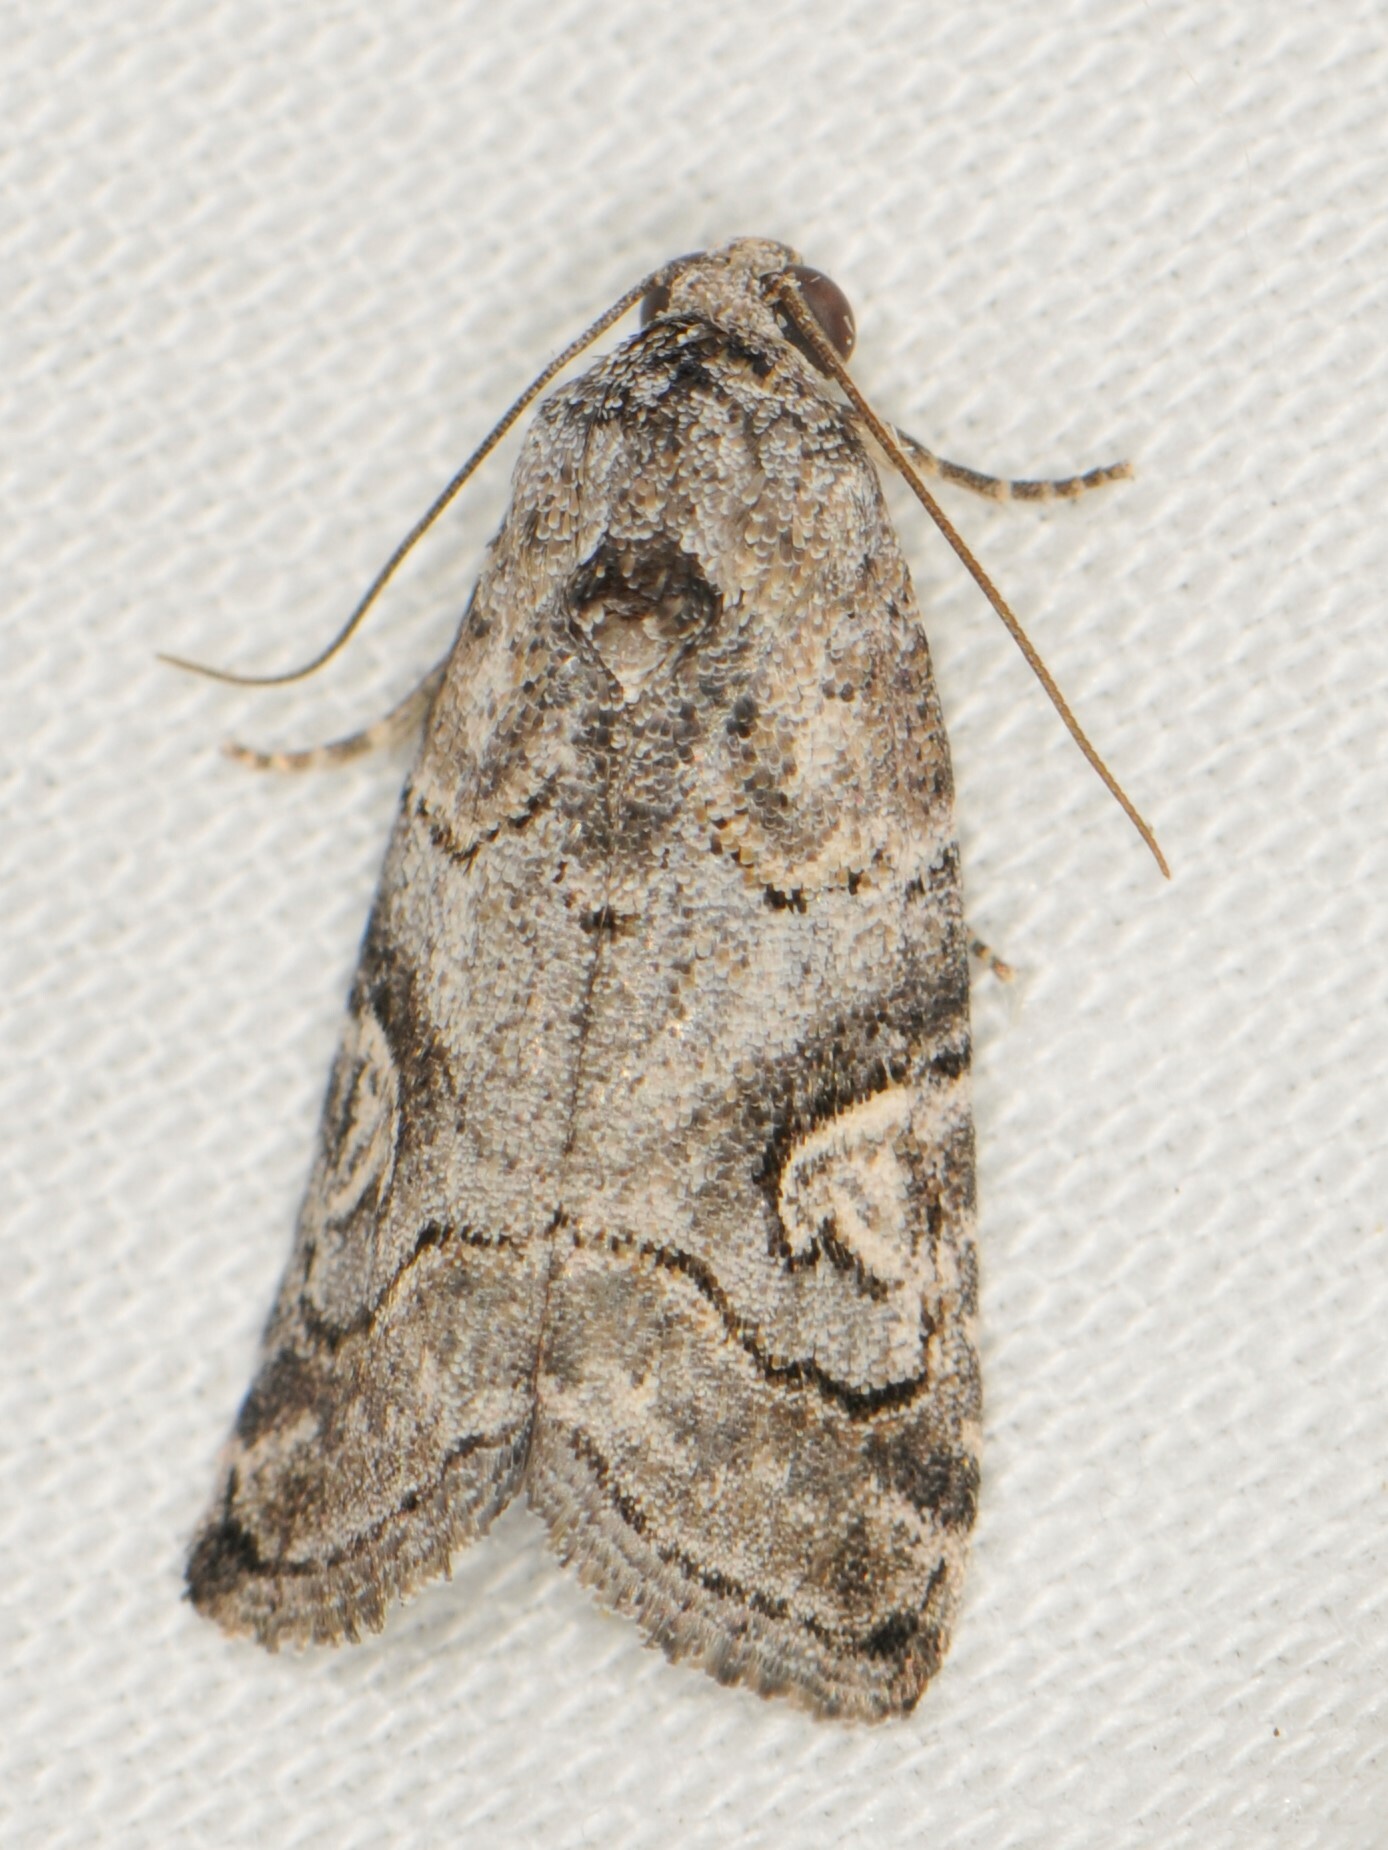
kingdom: Animalia
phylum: Arthropoda
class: Insecta
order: Lepidoptera
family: Noctuidae
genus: Metaponpneumata
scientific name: Metaponpneumata rogenhoferi
